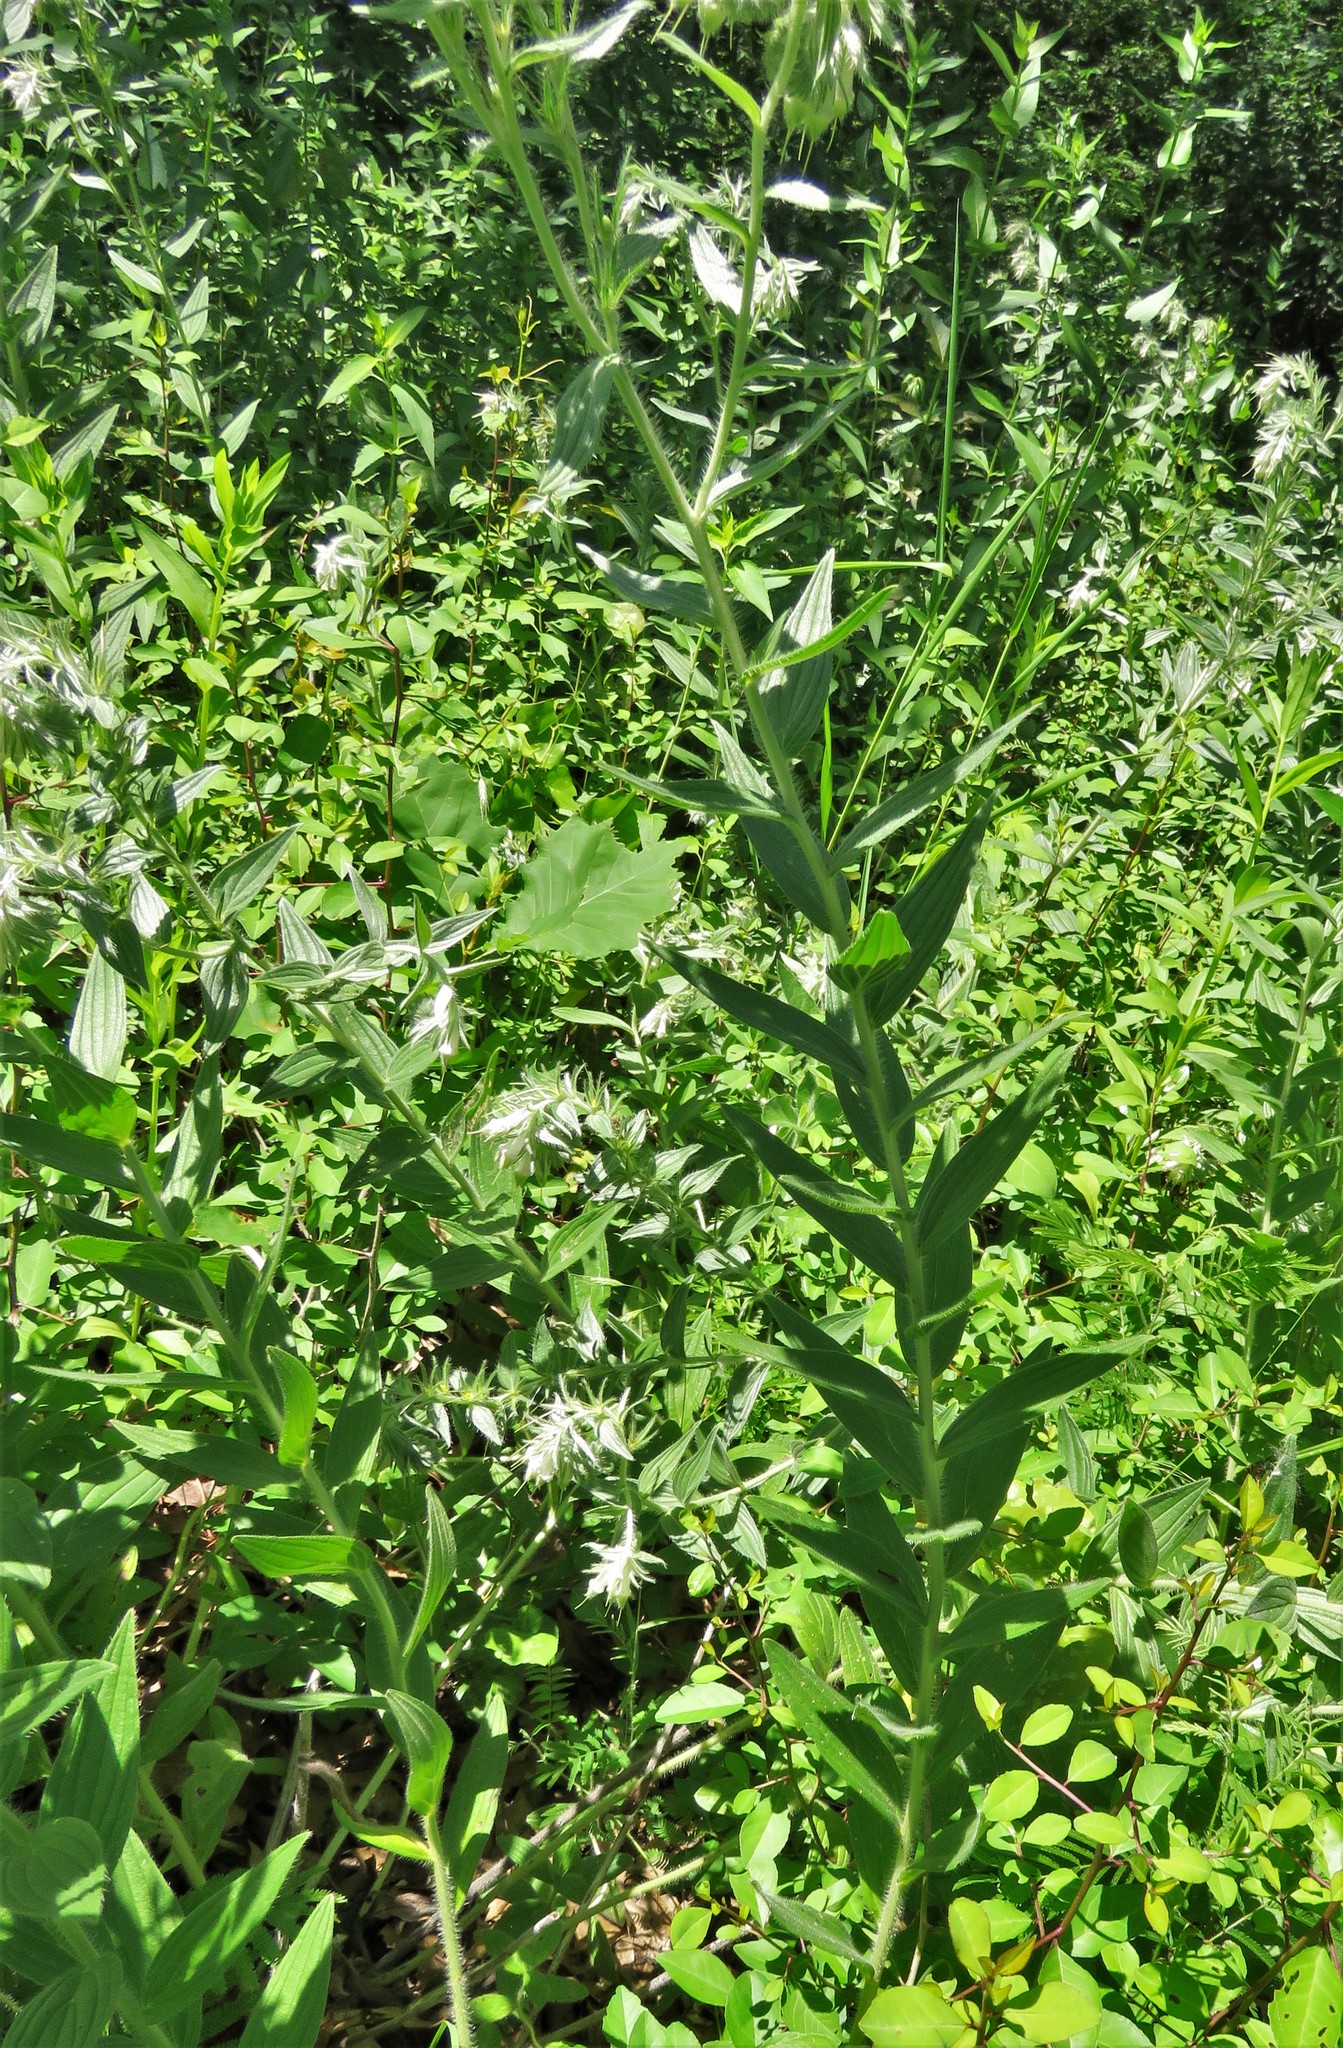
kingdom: Plantae
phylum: Tracheophyta
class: Magnoliopsida
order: Boraginales
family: Boraginaceae
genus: Lithospermum
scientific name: Lithospermum caroliniense
